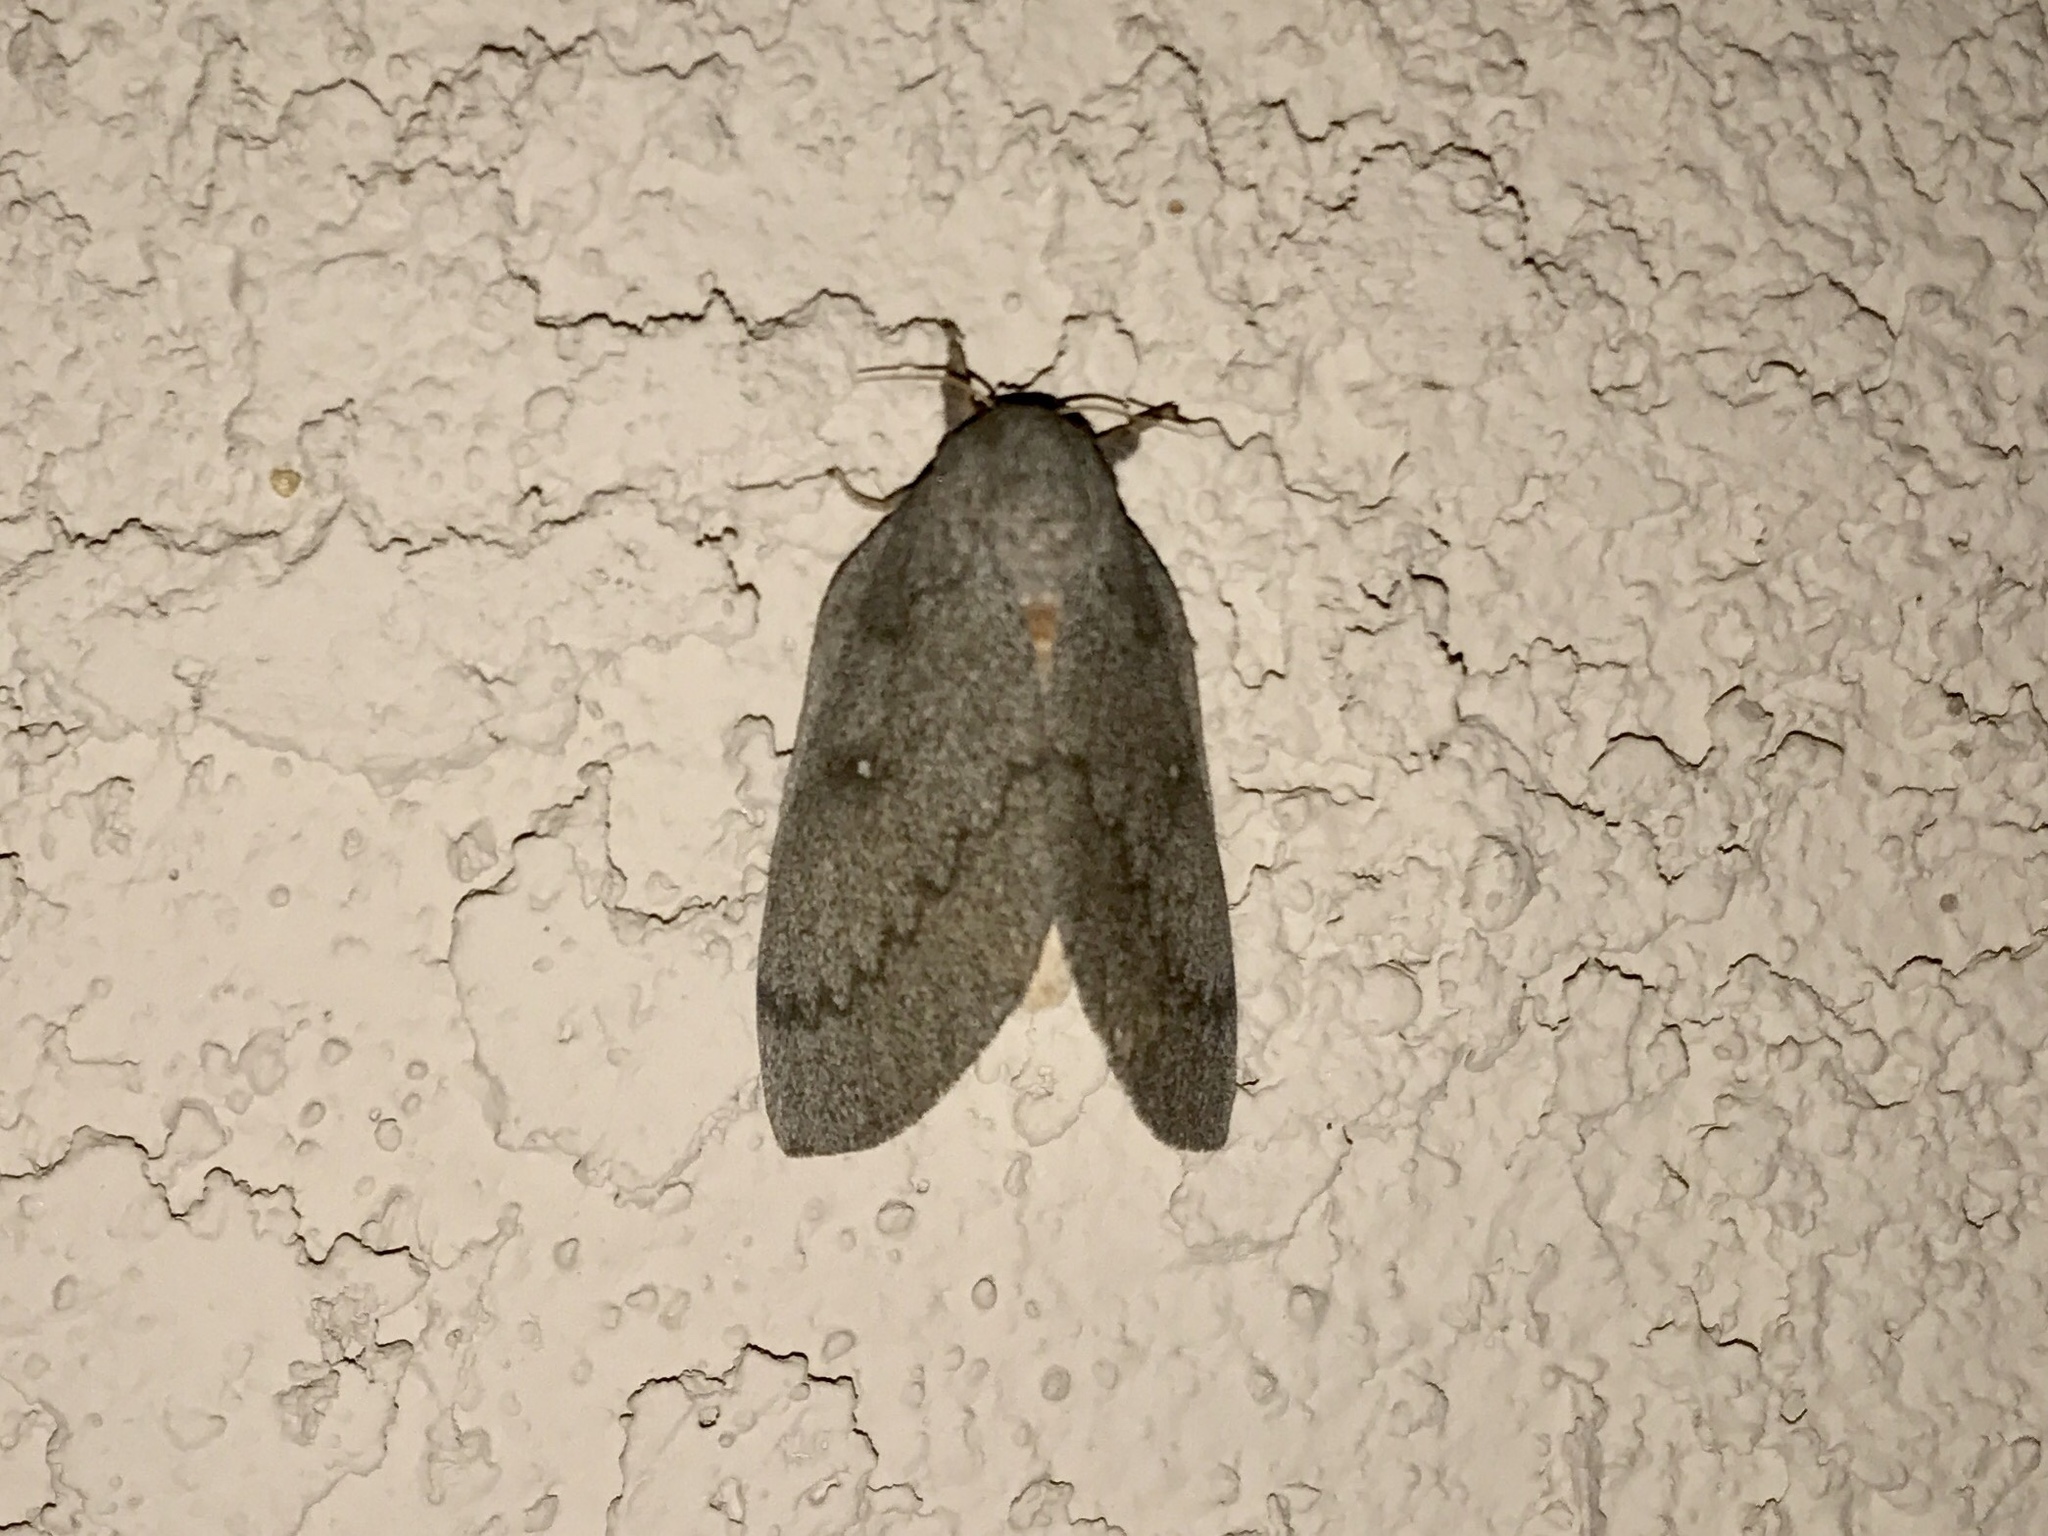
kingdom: Animalia
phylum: Arthropoda
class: Insecta
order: Lepidoptera
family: Saturniidae
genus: Syssphinx
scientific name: Syssphinx hubbardi
